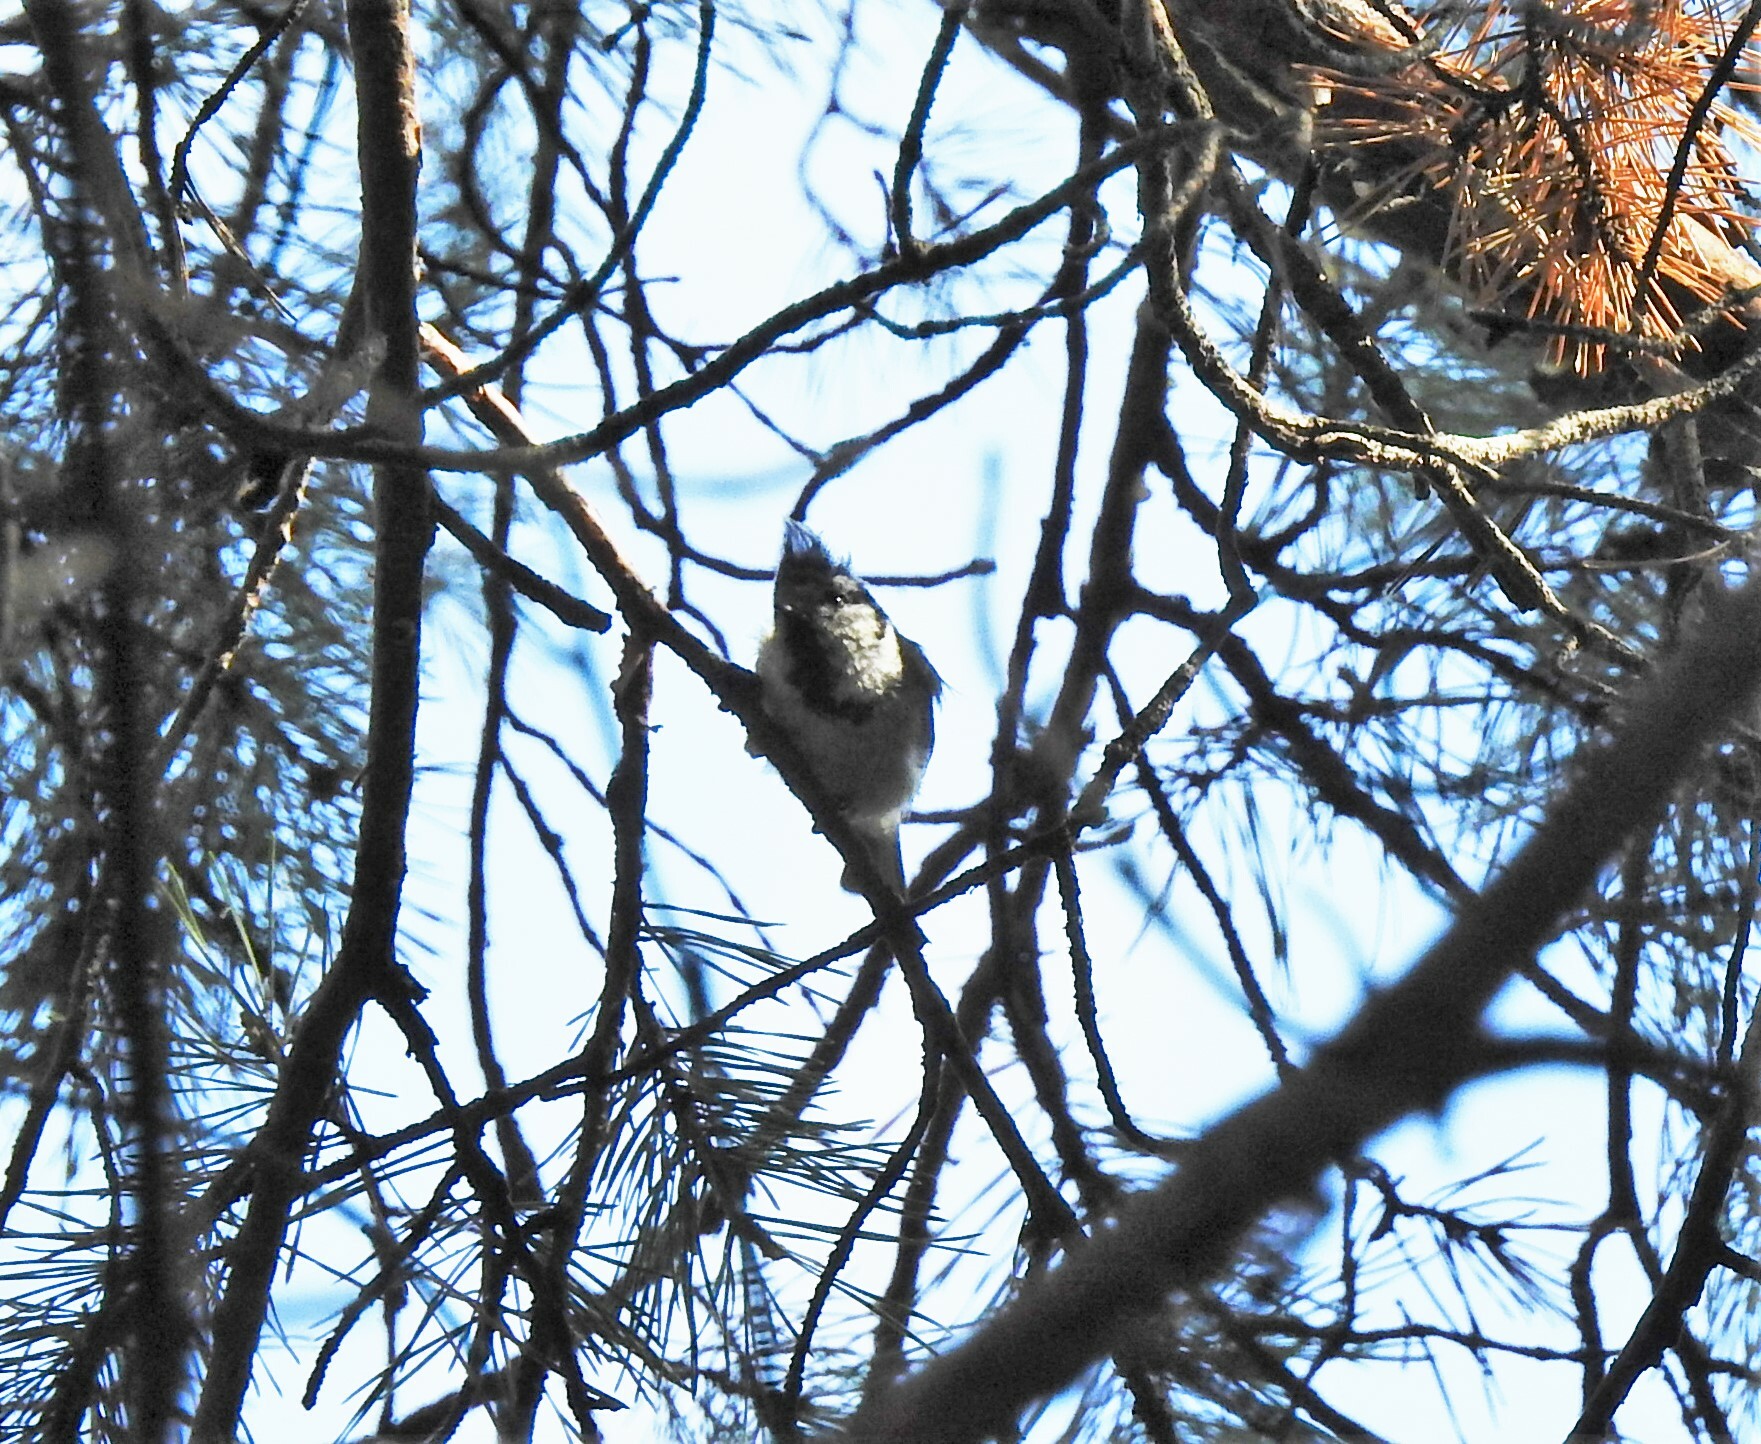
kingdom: Animalia
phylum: Chordata
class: Aves
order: Passeriformes
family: Paridae
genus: Lophophanes
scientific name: Lophophanes cristatus
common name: European crested tit
